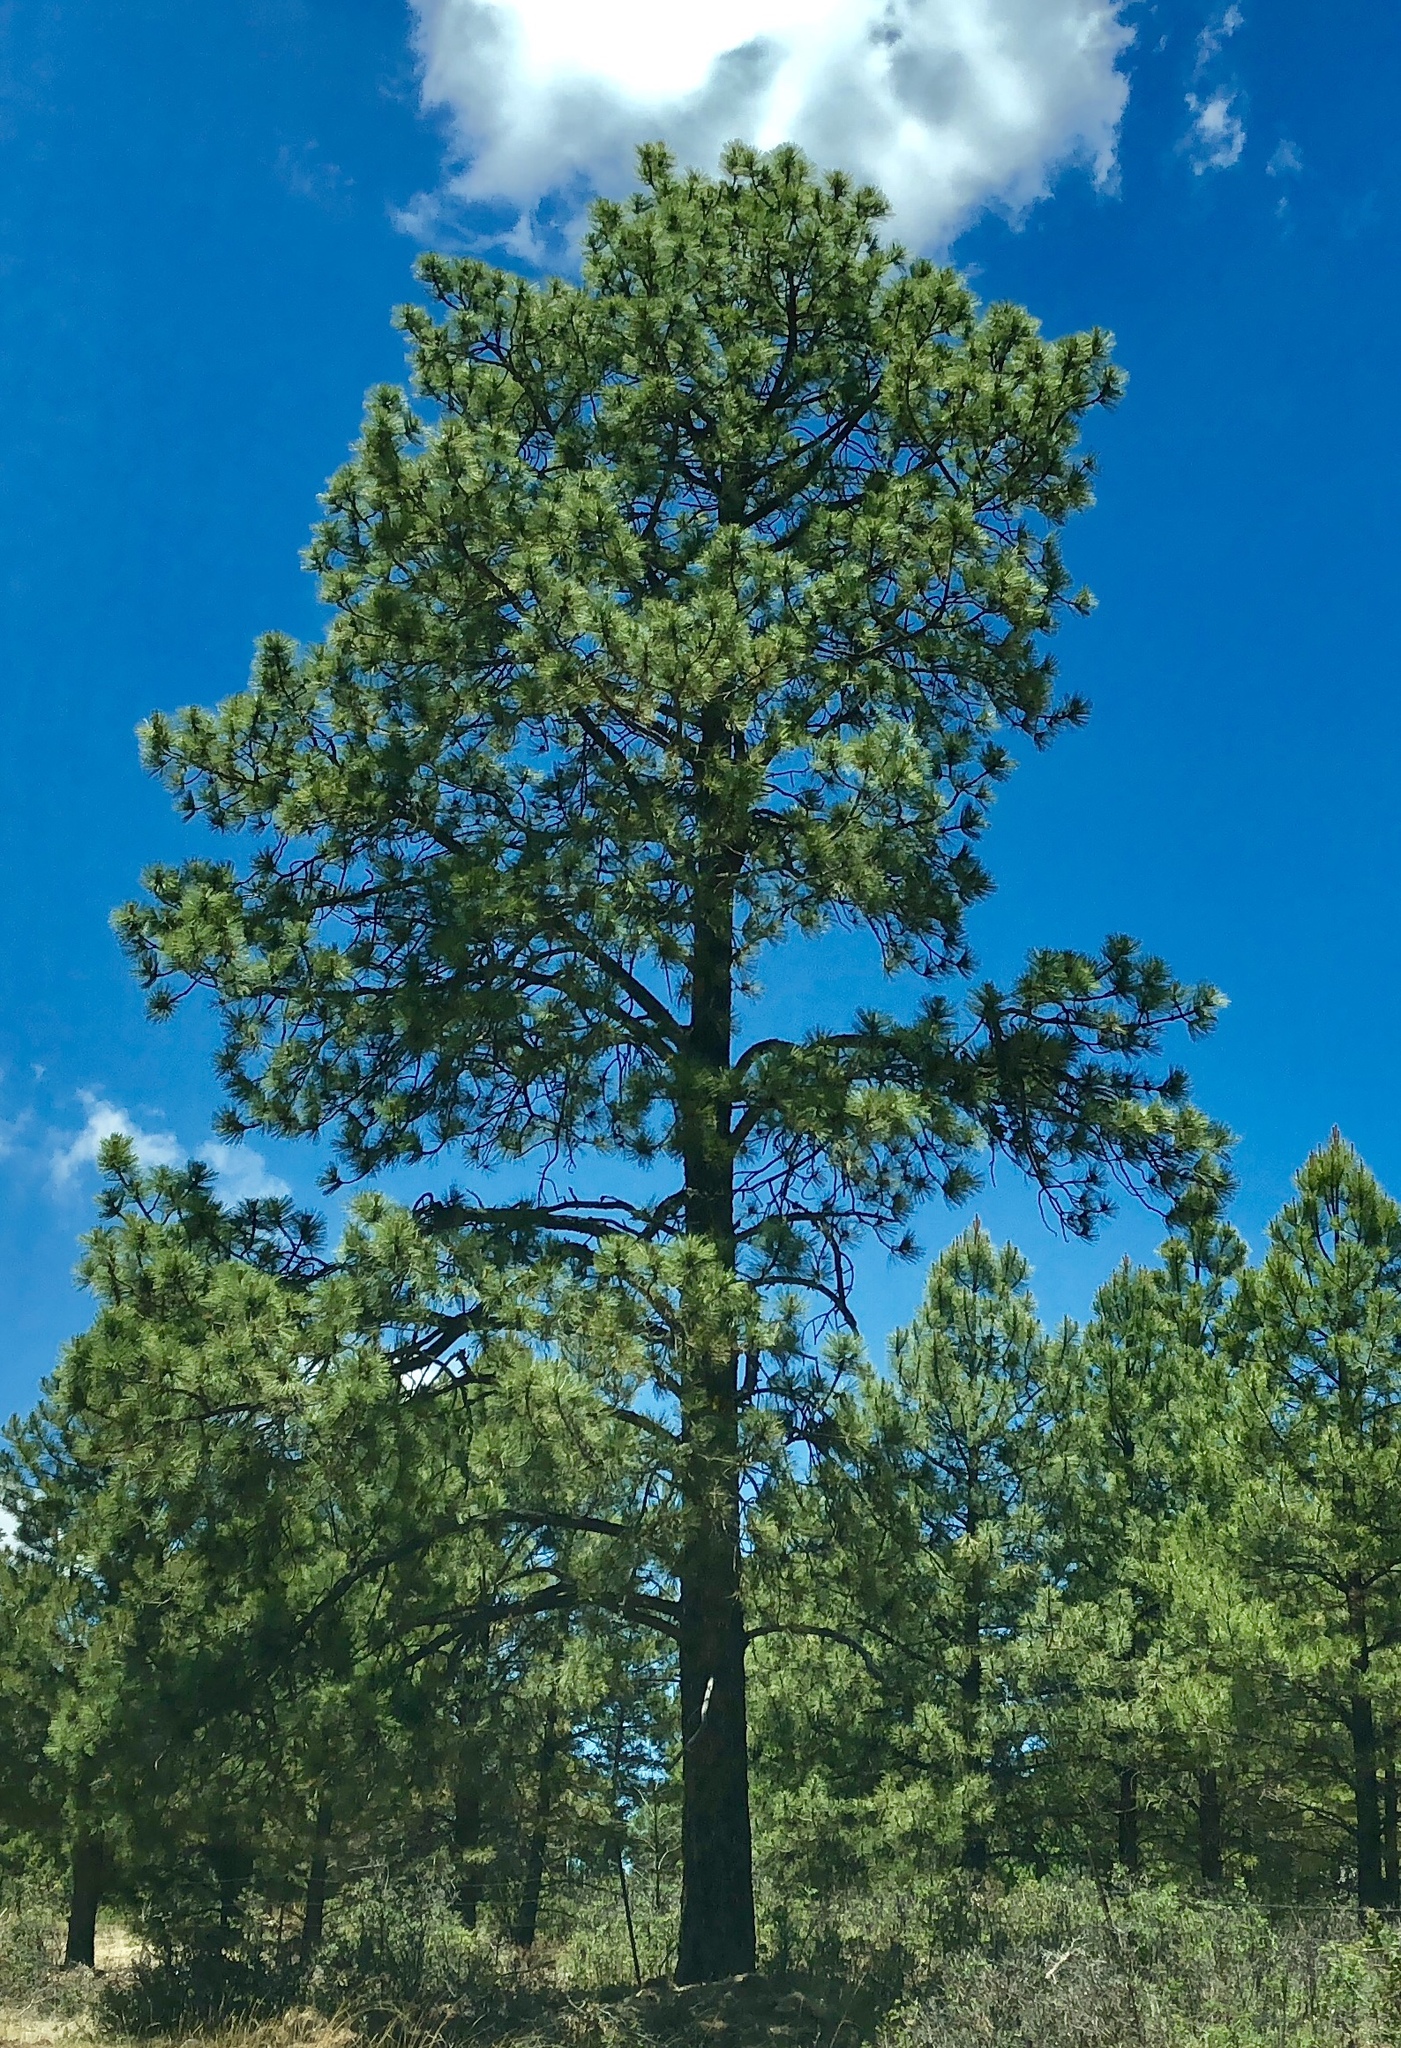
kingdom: Plantae
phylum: Tracheophyta
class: Pinopsida
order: Pinales
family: Pinaceae
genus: Pinus
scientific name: Pinus ponderosa
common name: Western yellow-pine
